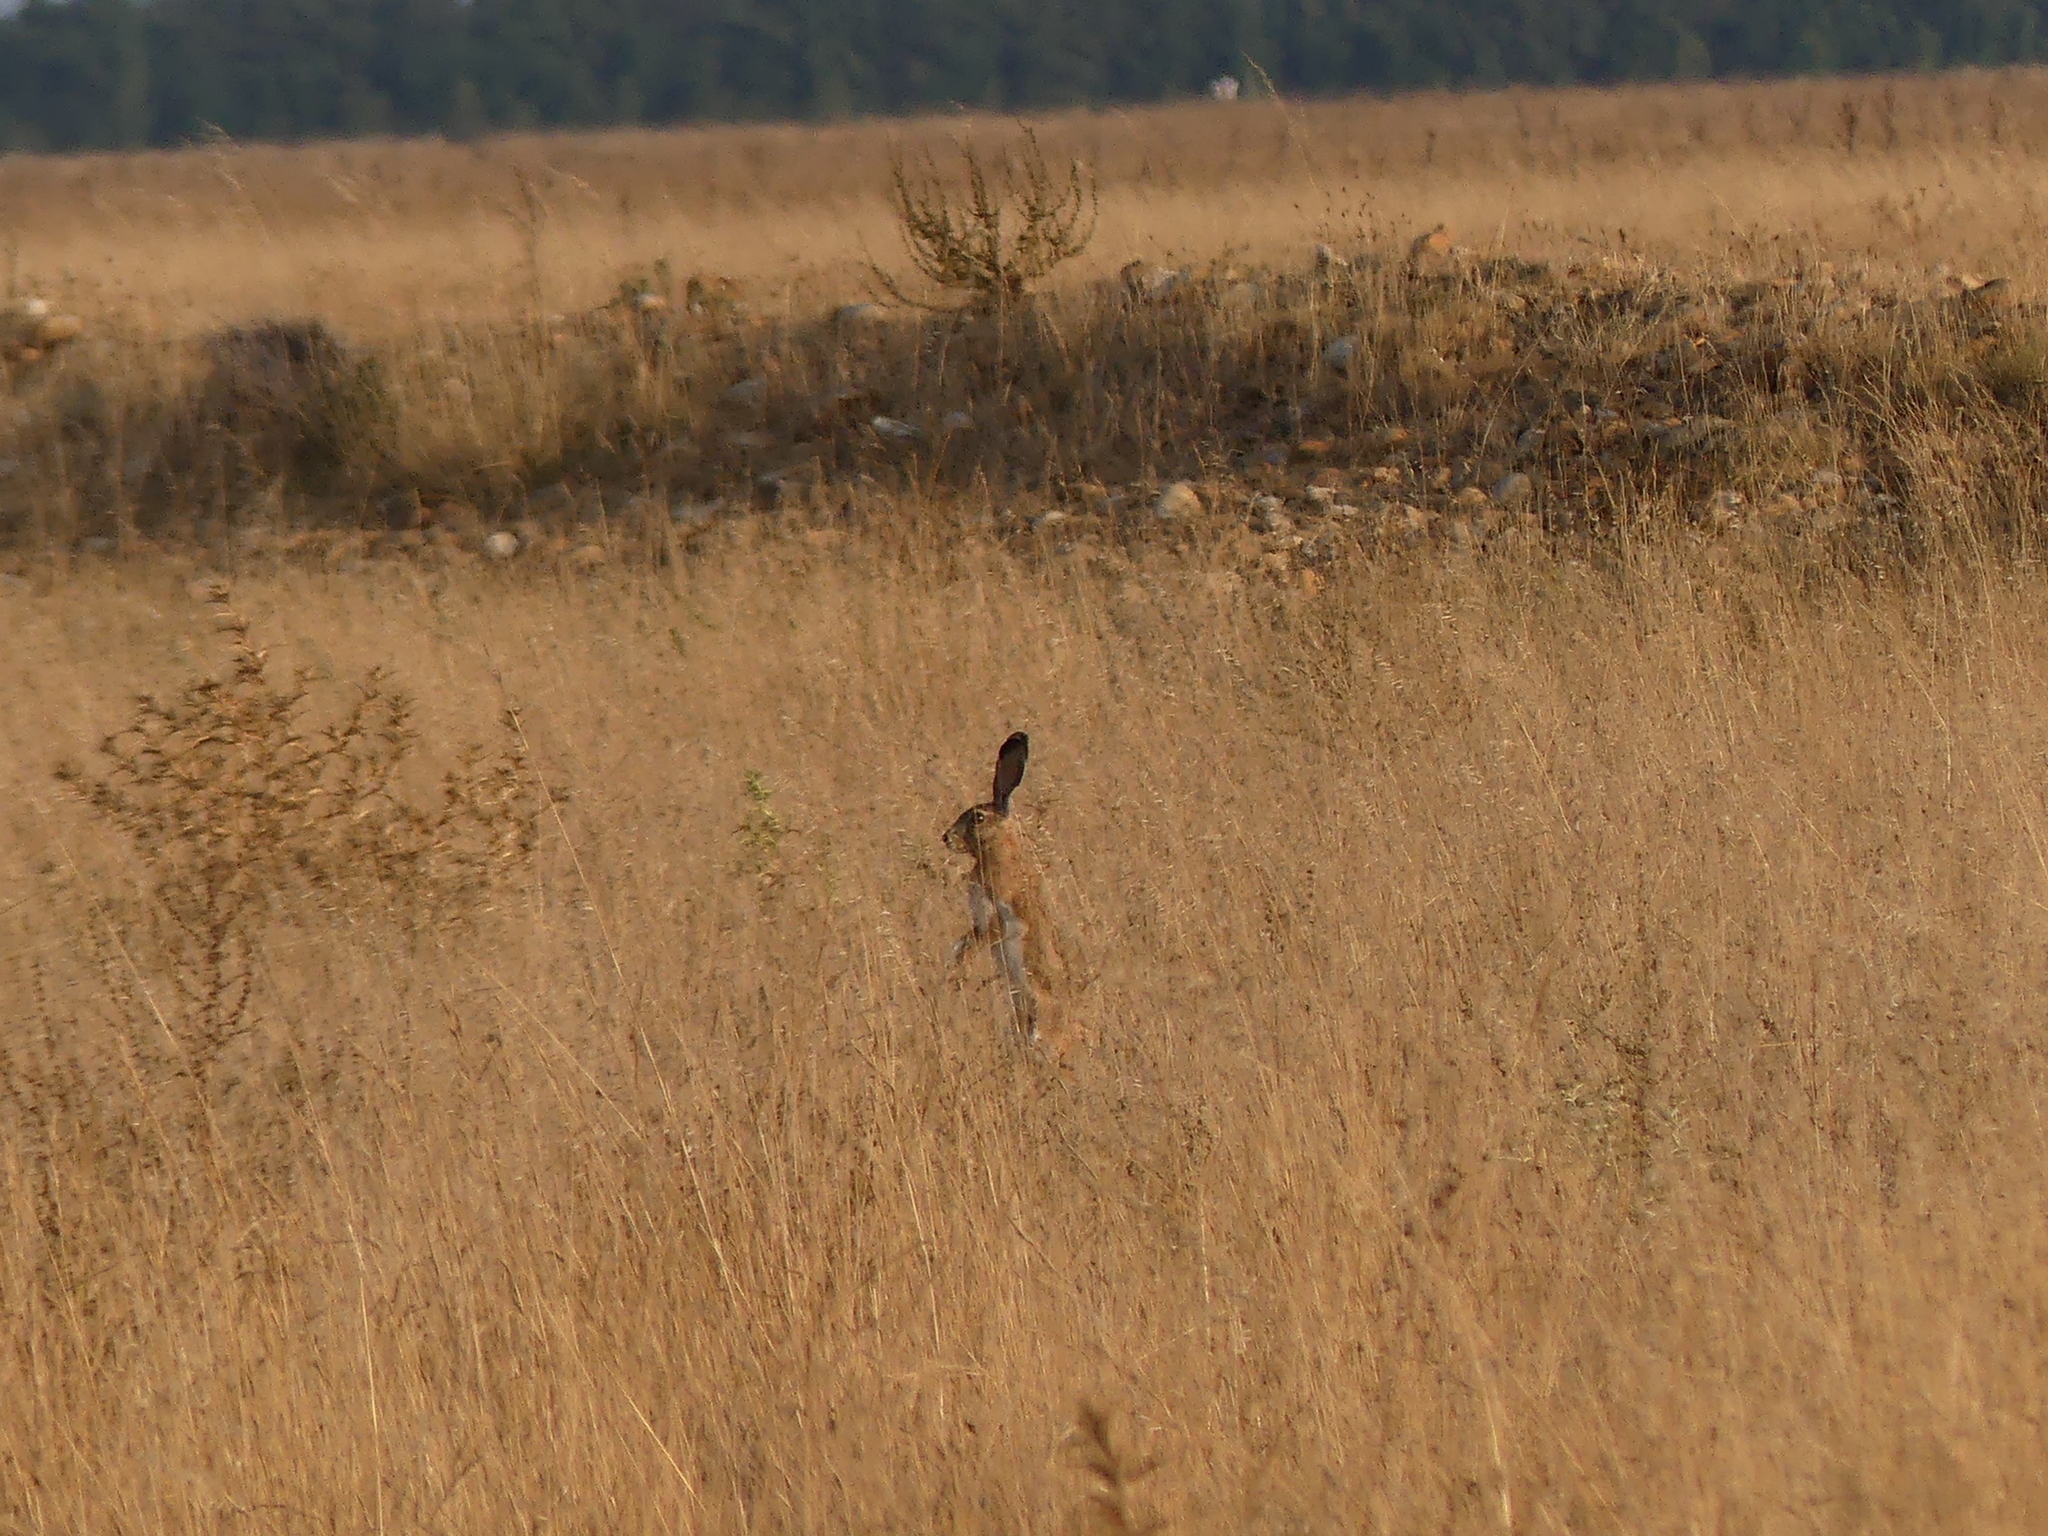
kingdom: Animalia
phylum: Chordata
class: Mammalia
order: Lagomorpha
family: Leporidae
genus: Lepus
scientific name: Lepus europaeus
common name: European hare
